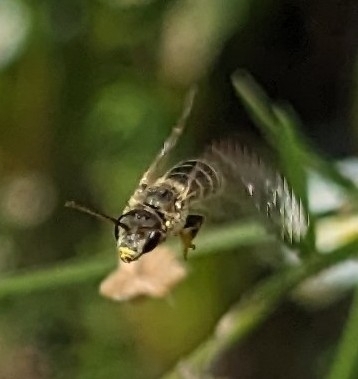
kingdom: Animalia
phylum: Arthropoda
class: Insecta
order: Hymenoptera
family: Halictidae
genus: Halictus
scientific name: Halictus ligatus
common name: Ligated furrow bee
